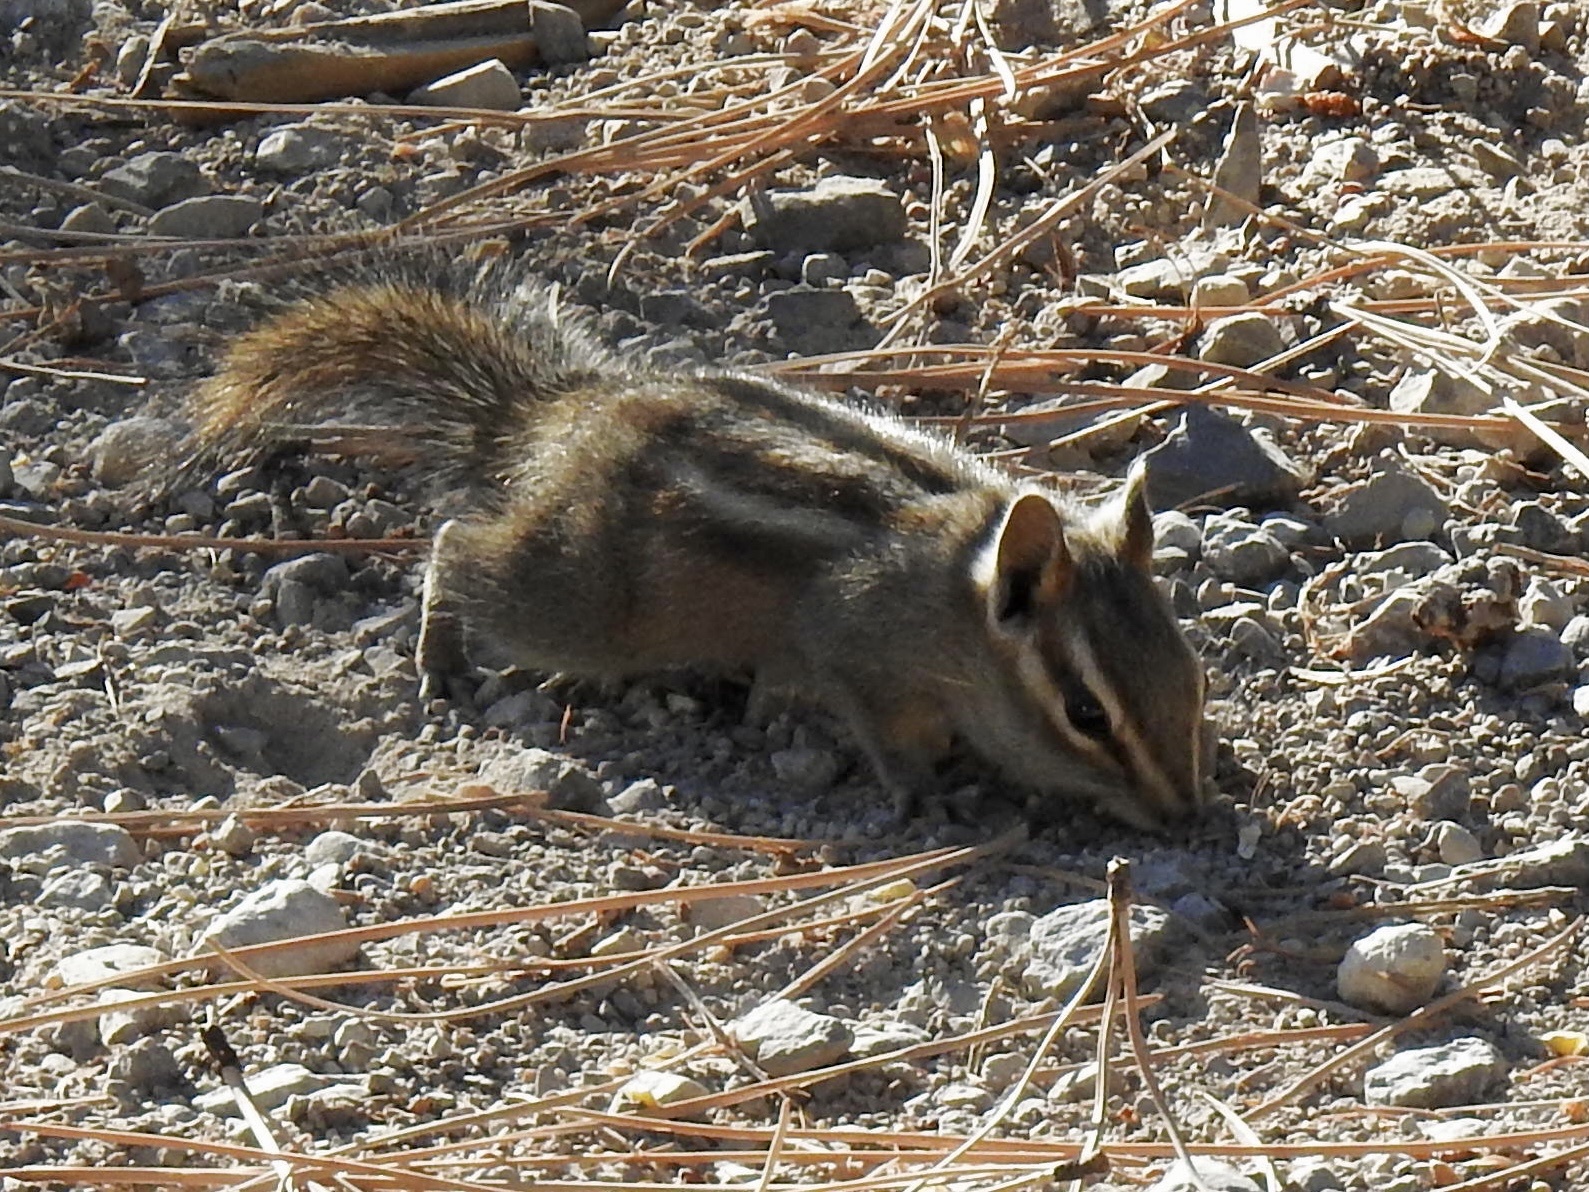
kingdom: Animalia
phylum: Chordata
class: Mammalia
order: Rodentia
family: Sciuridae
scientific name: Sciuridae
